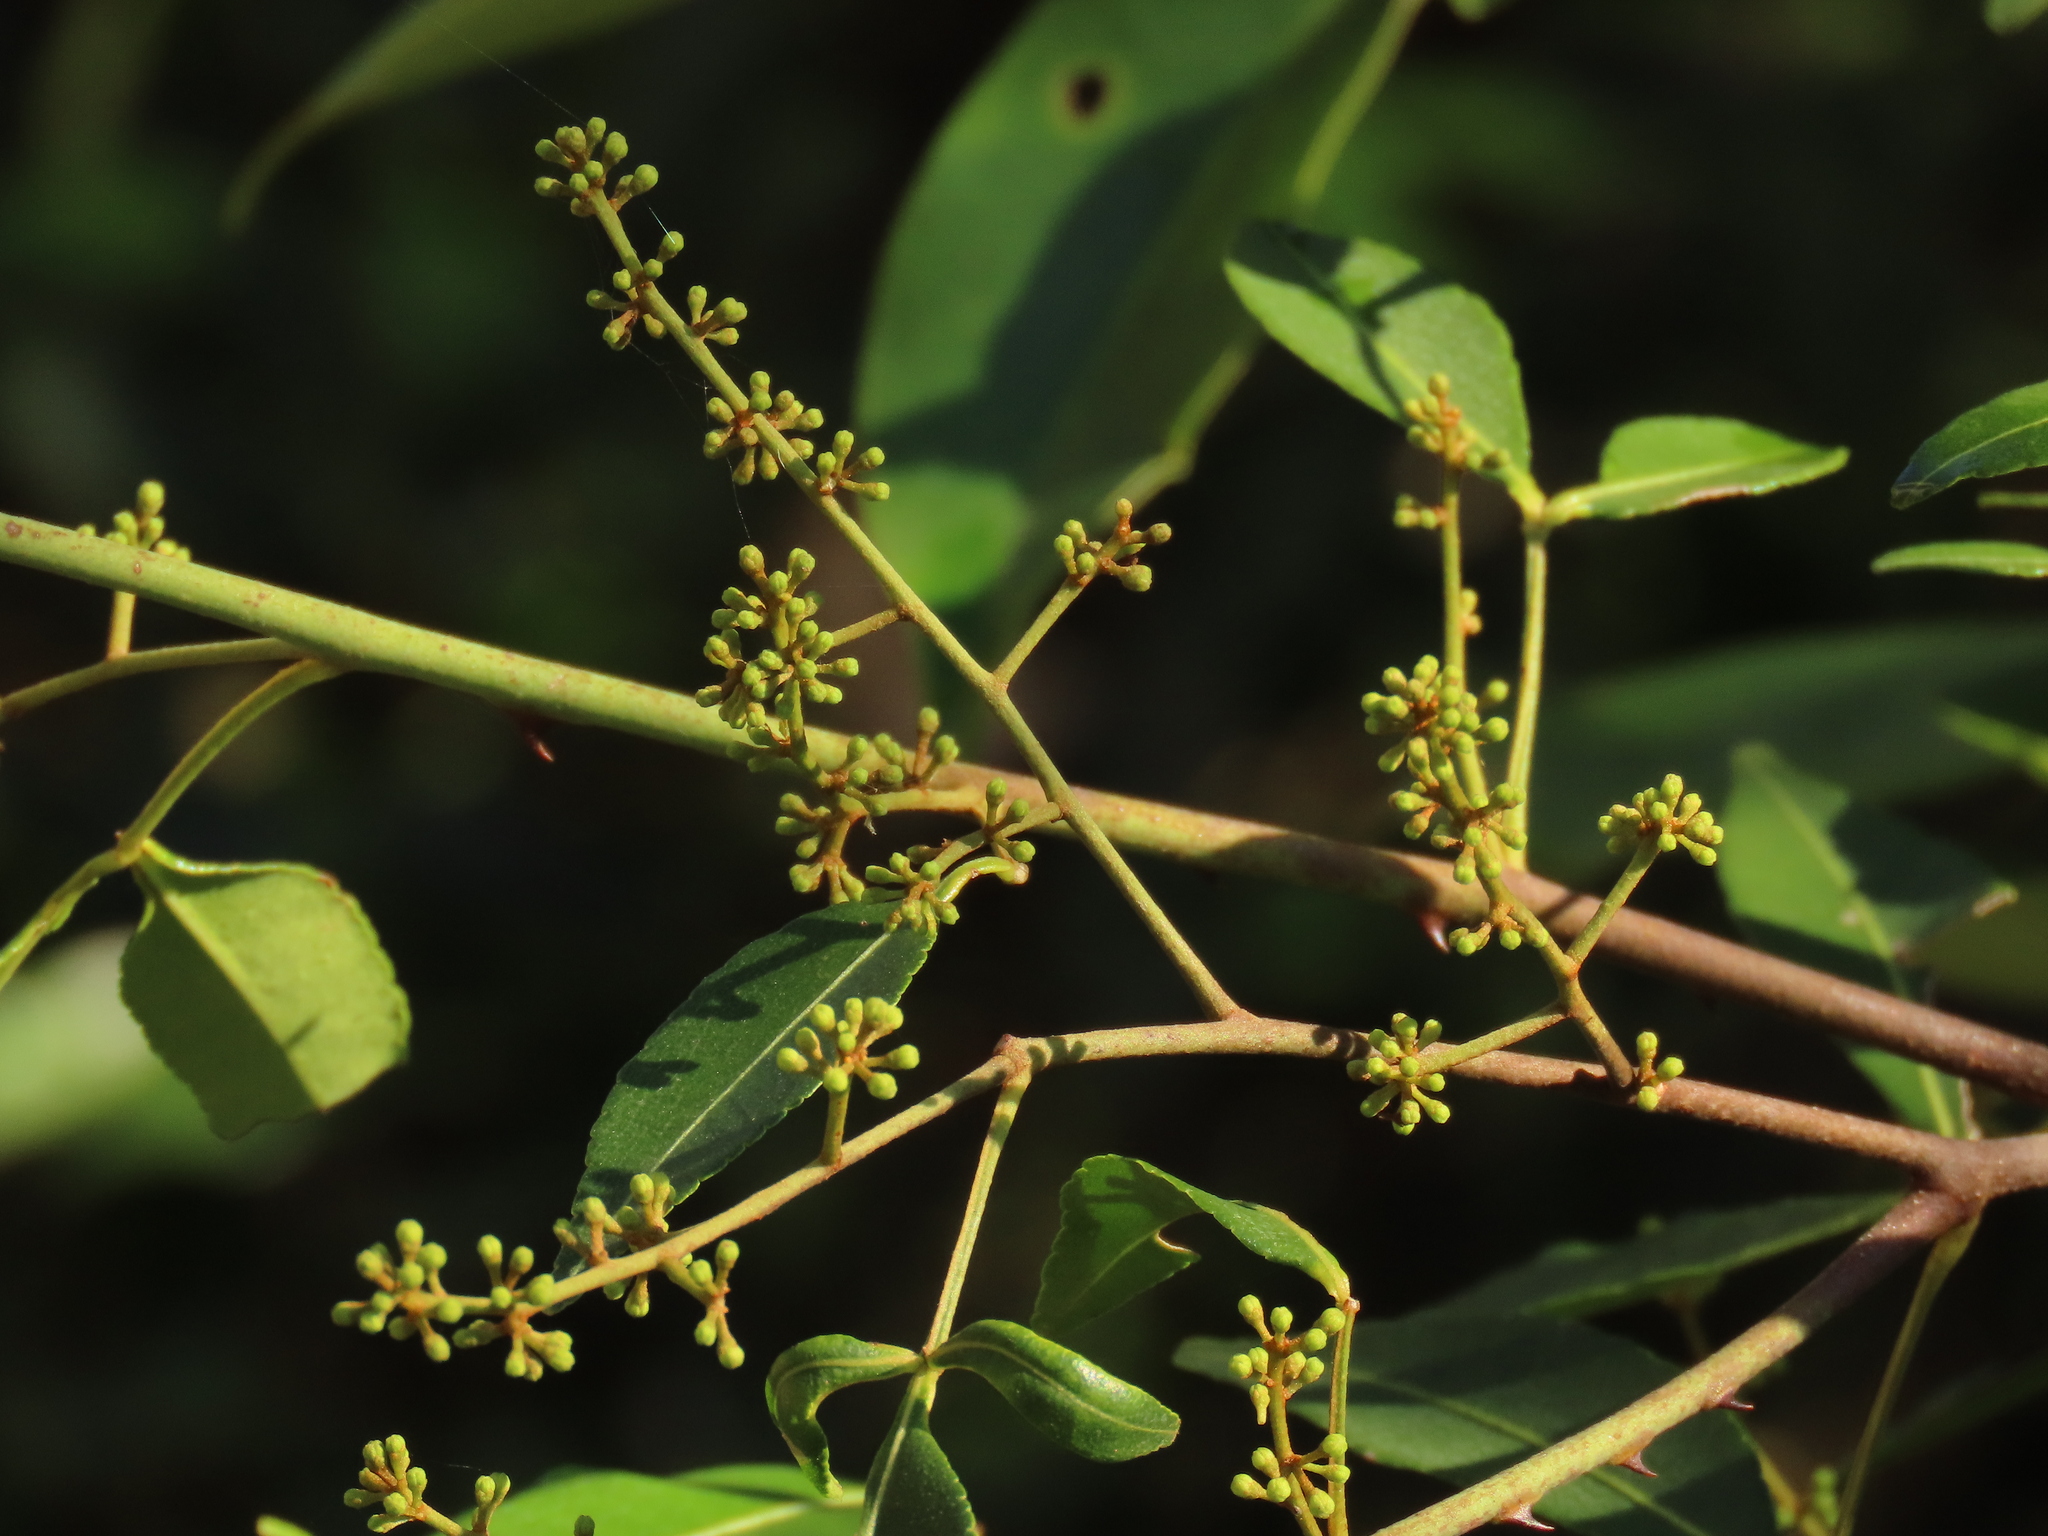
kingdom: Plantae
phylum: Tracheophyta
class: Magnoliopsida
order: Sapindales
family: Rutaceae
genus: Zanthoxylum
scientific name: Zanthoxylum asiaticum
